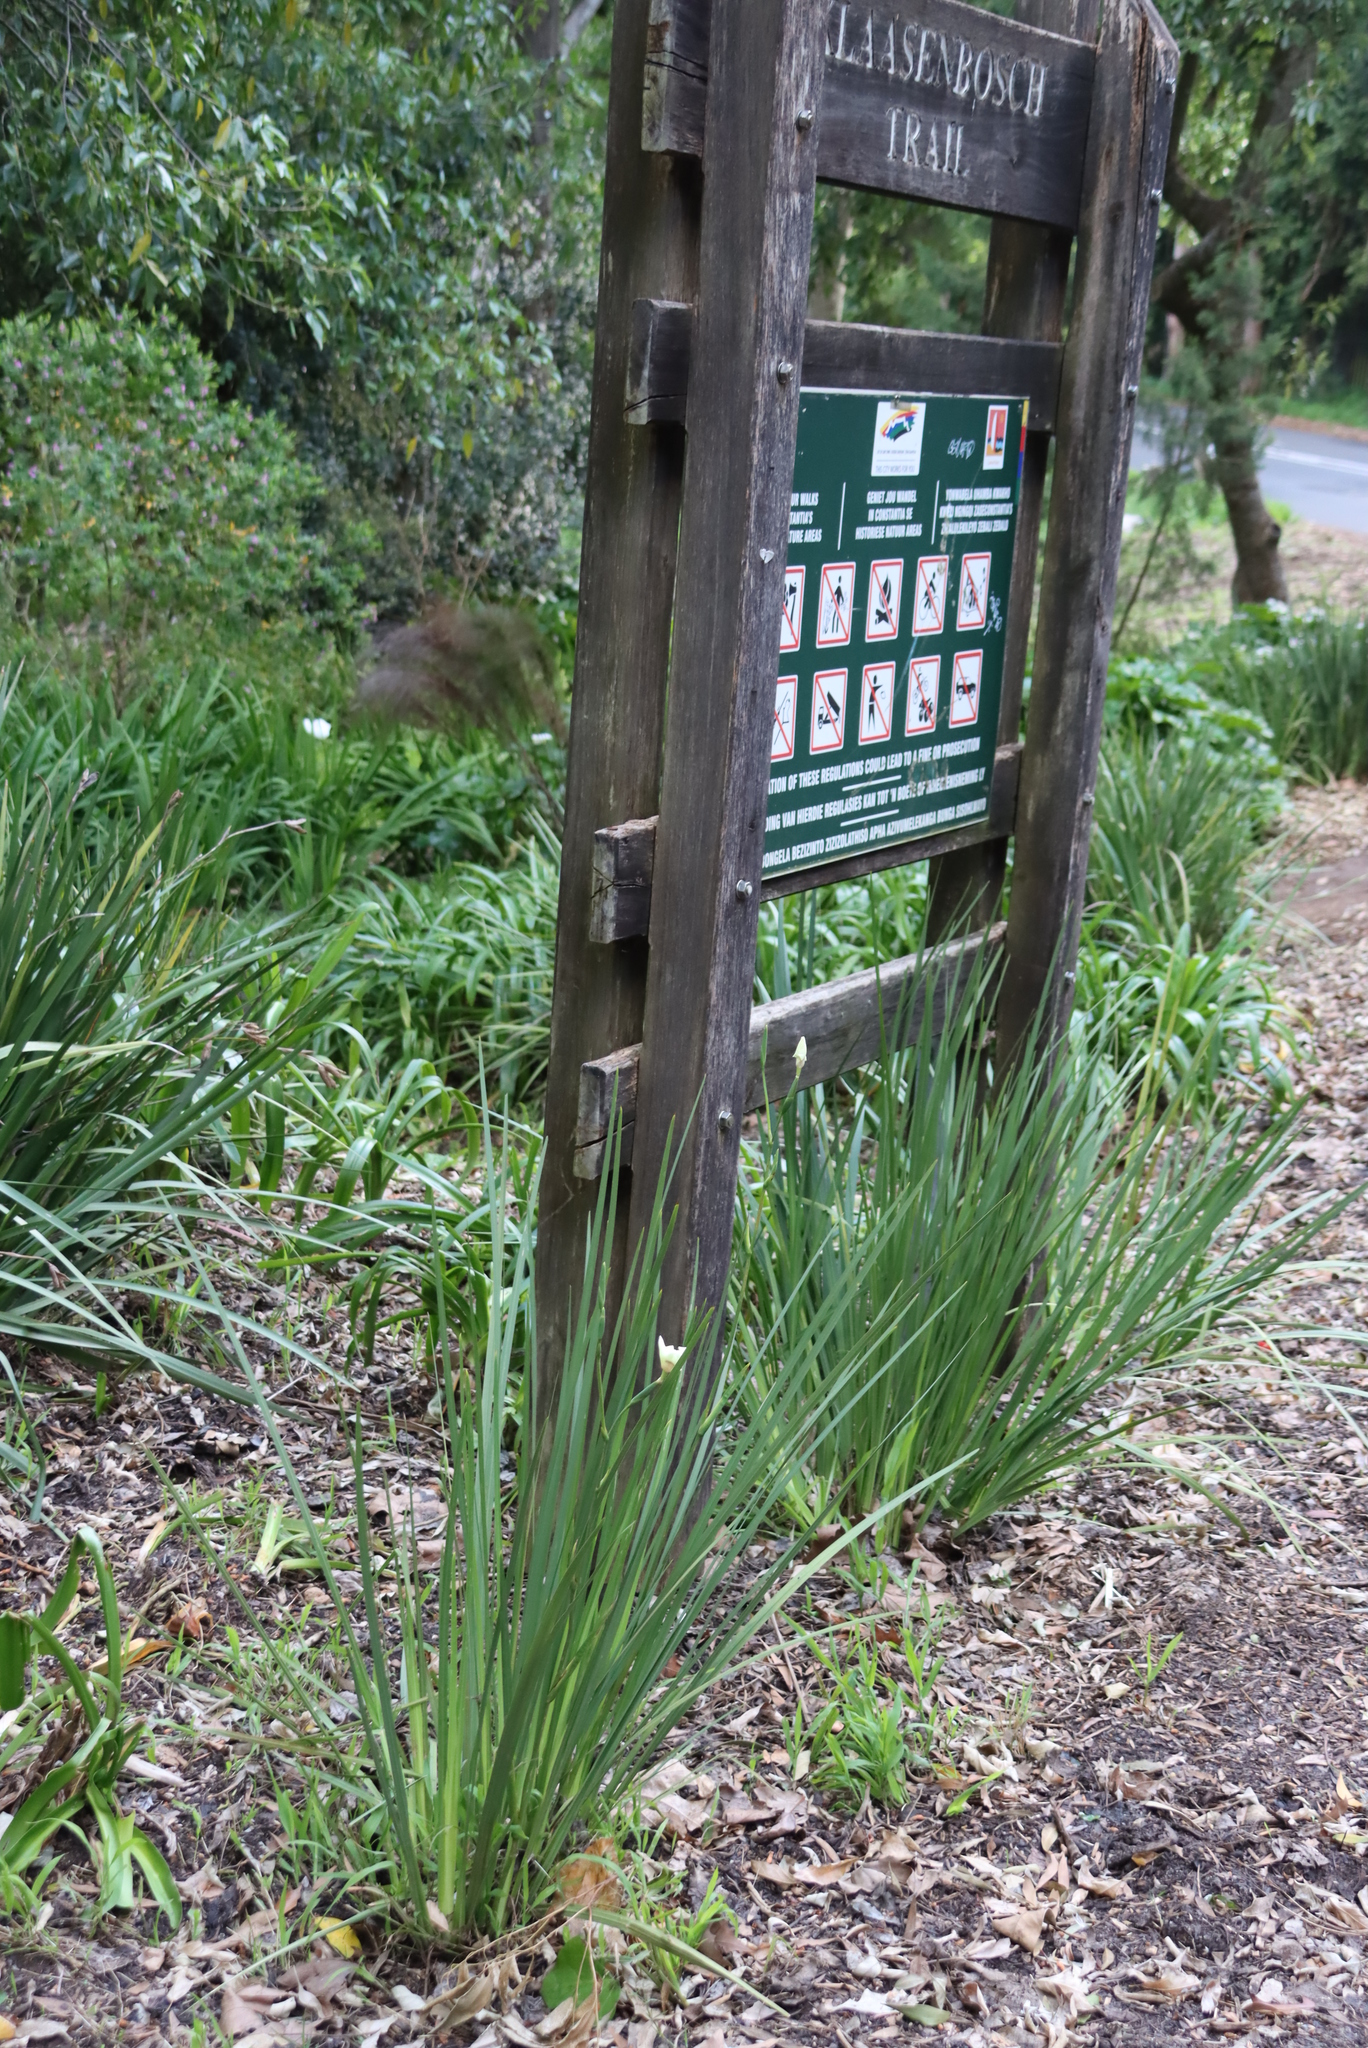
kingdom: Plantae
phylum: Tracheophyta
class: Liliopsida
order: Asparagales
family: Iridaceae
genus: Dietes
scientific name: Dietes grandiflora
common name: Wild iris
